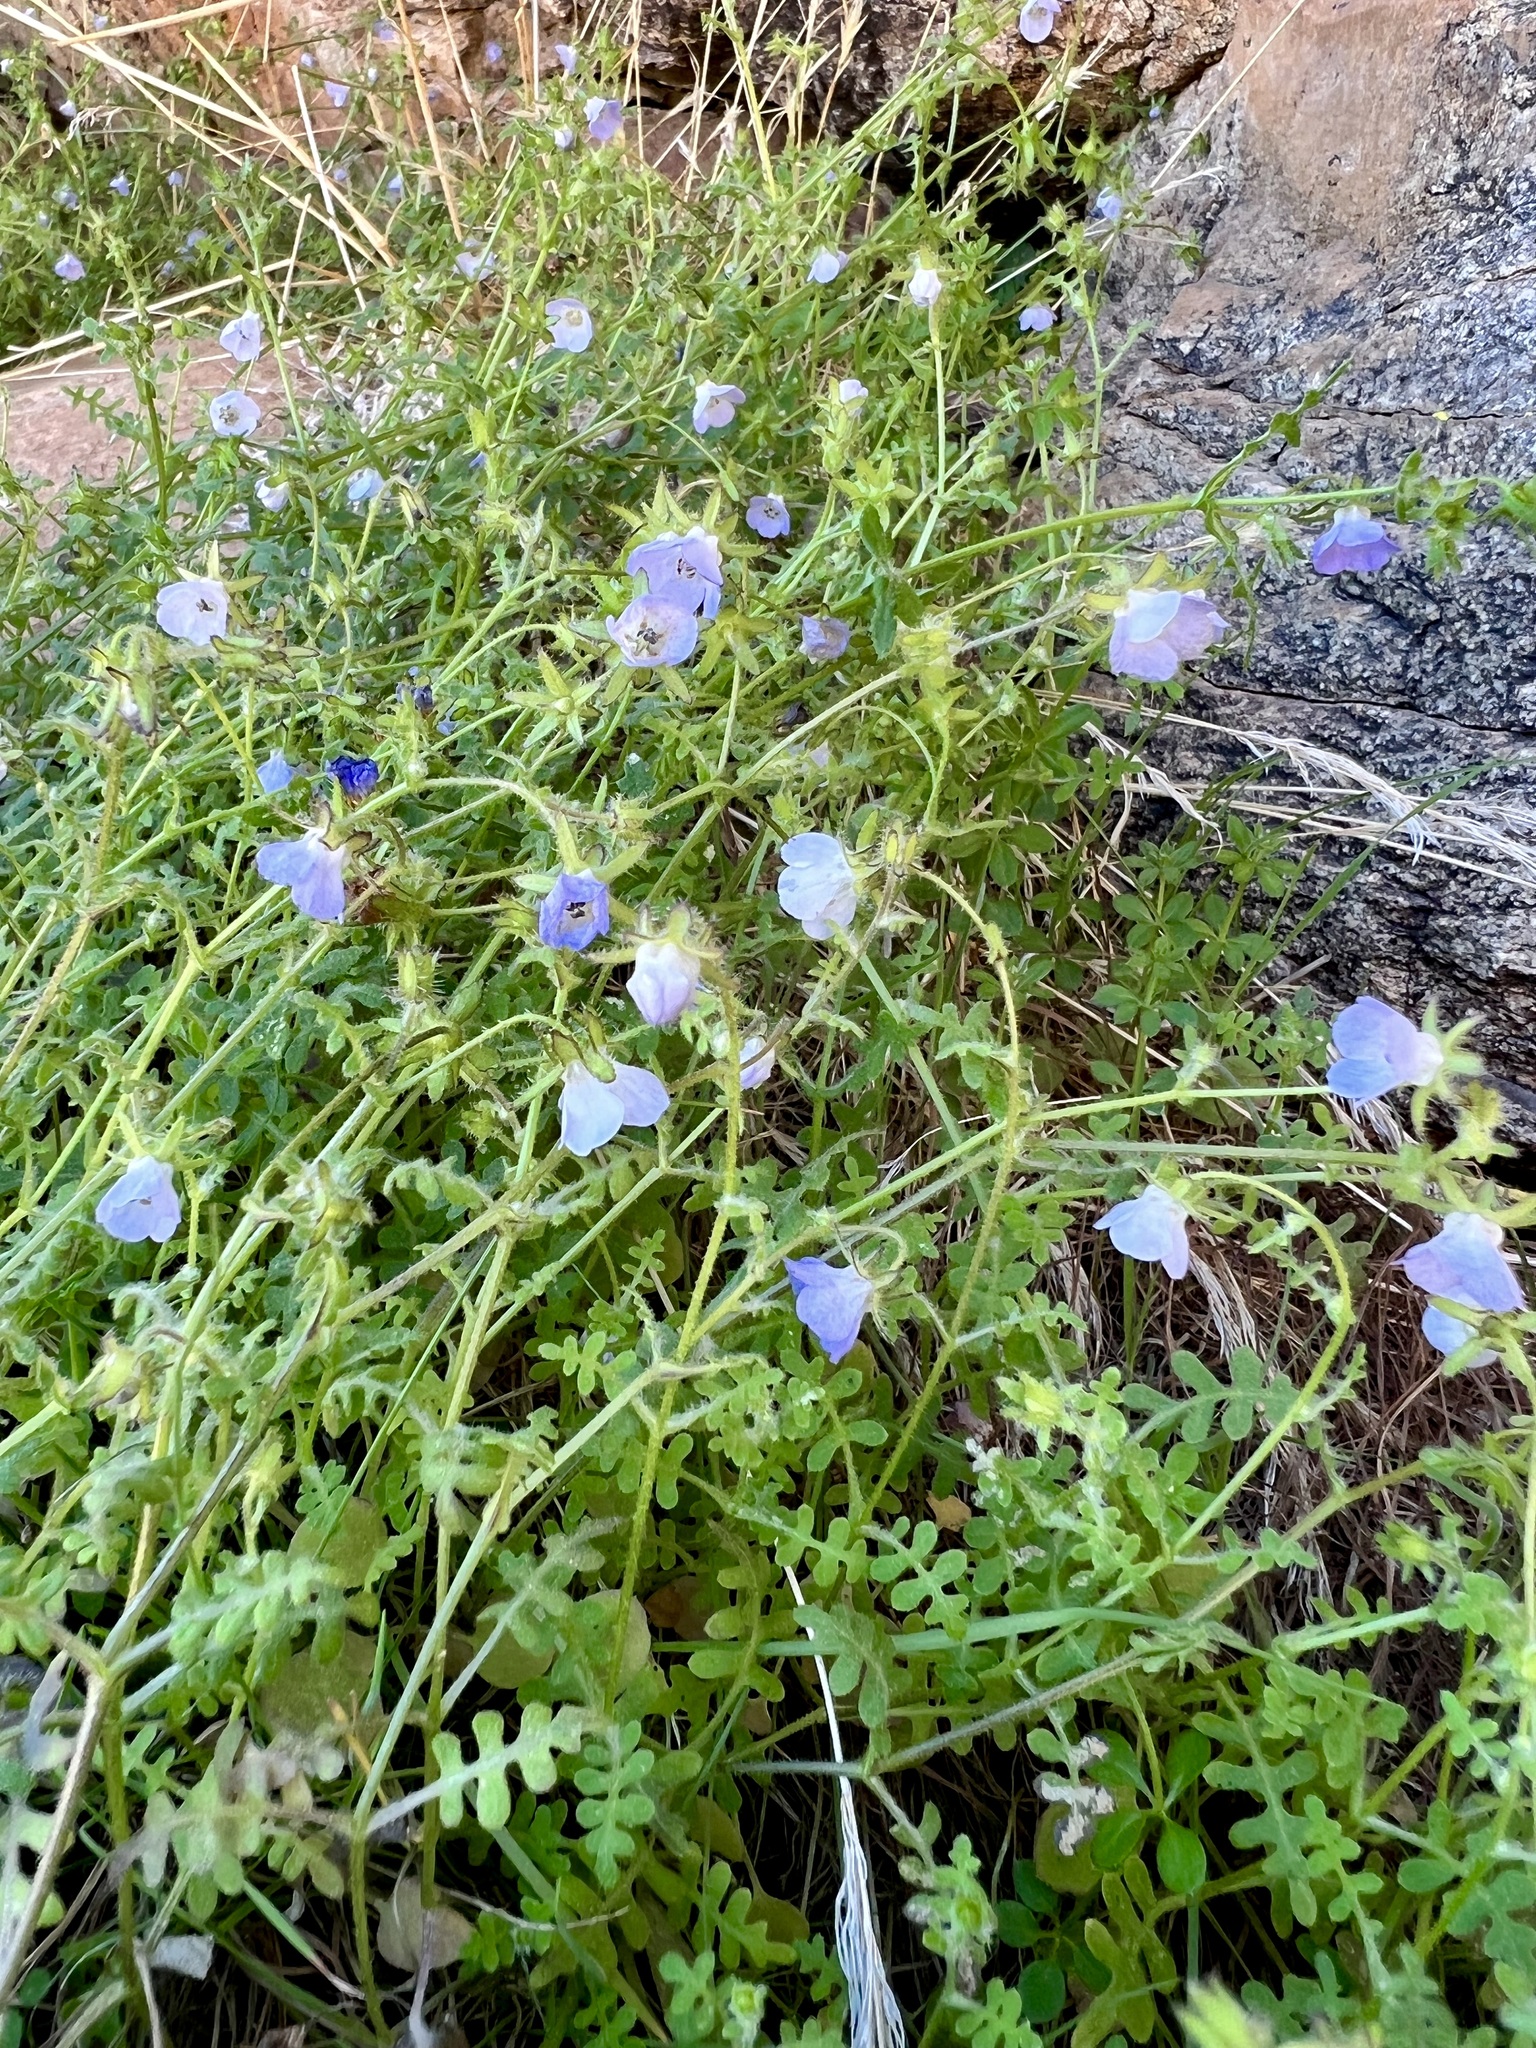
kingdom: Plantae
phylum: Tracheophyta
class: Magnoliopsida
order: Boraginales
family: Hydrophyllaceae
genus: Pholistoma
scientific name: Pholistoma auritum
